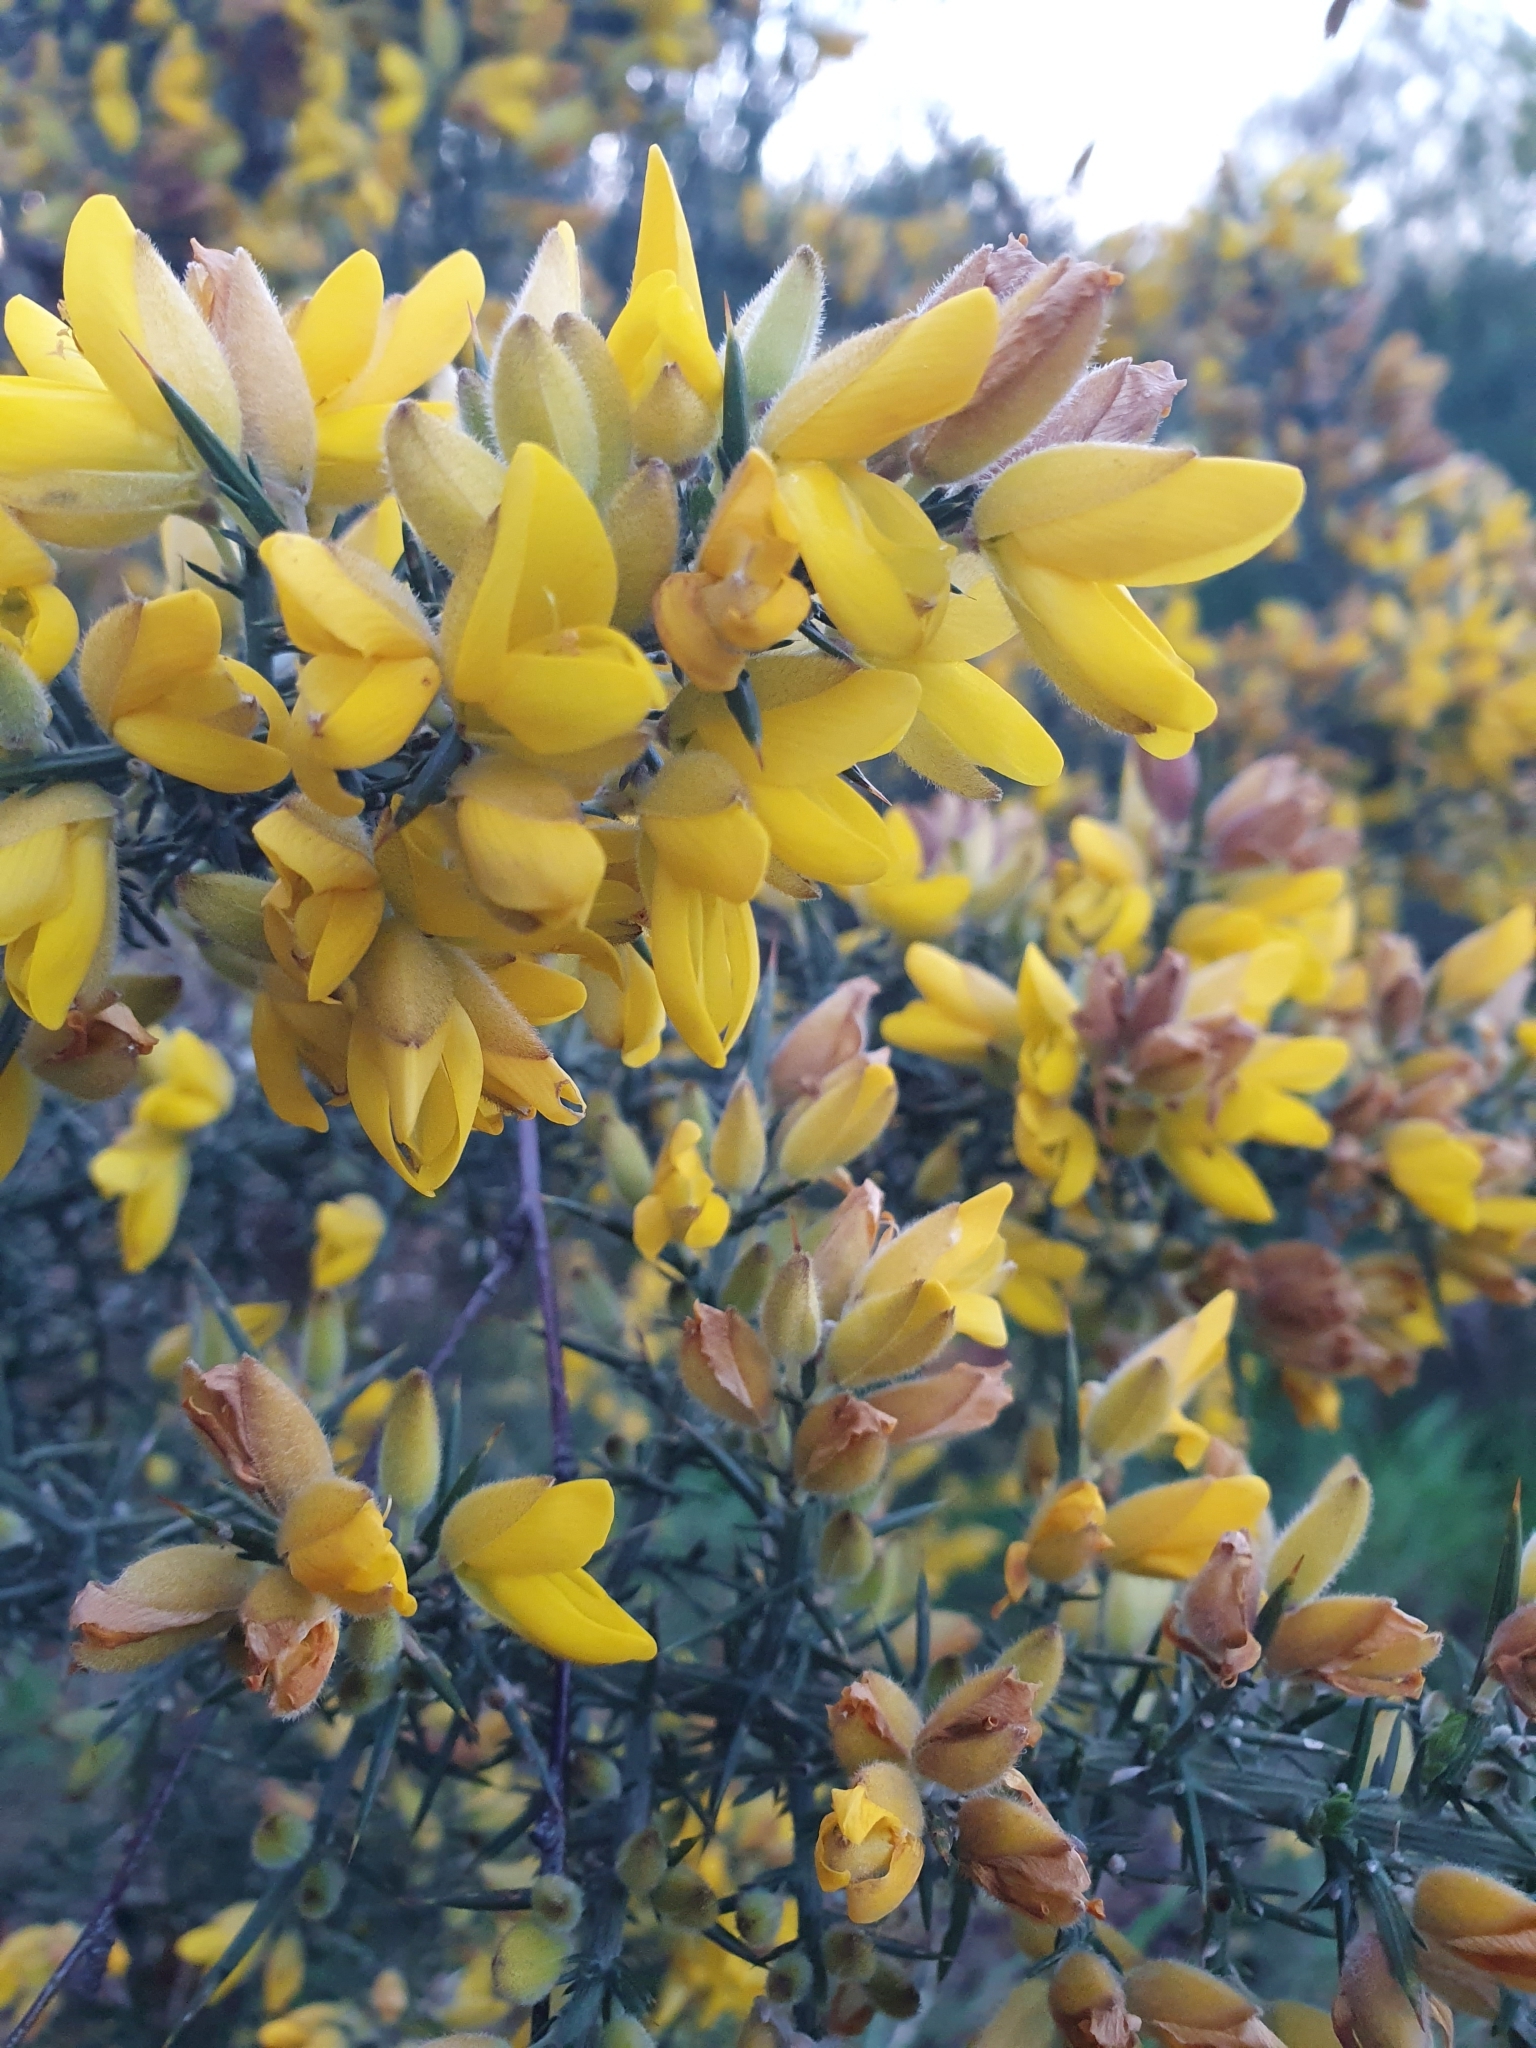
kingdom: Plantae
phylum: Tracheophyta
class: Magnoliopsida
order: Fabales
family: Fabaceae
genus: Ulex
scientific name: Ulex europaeus
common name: Common gorse
